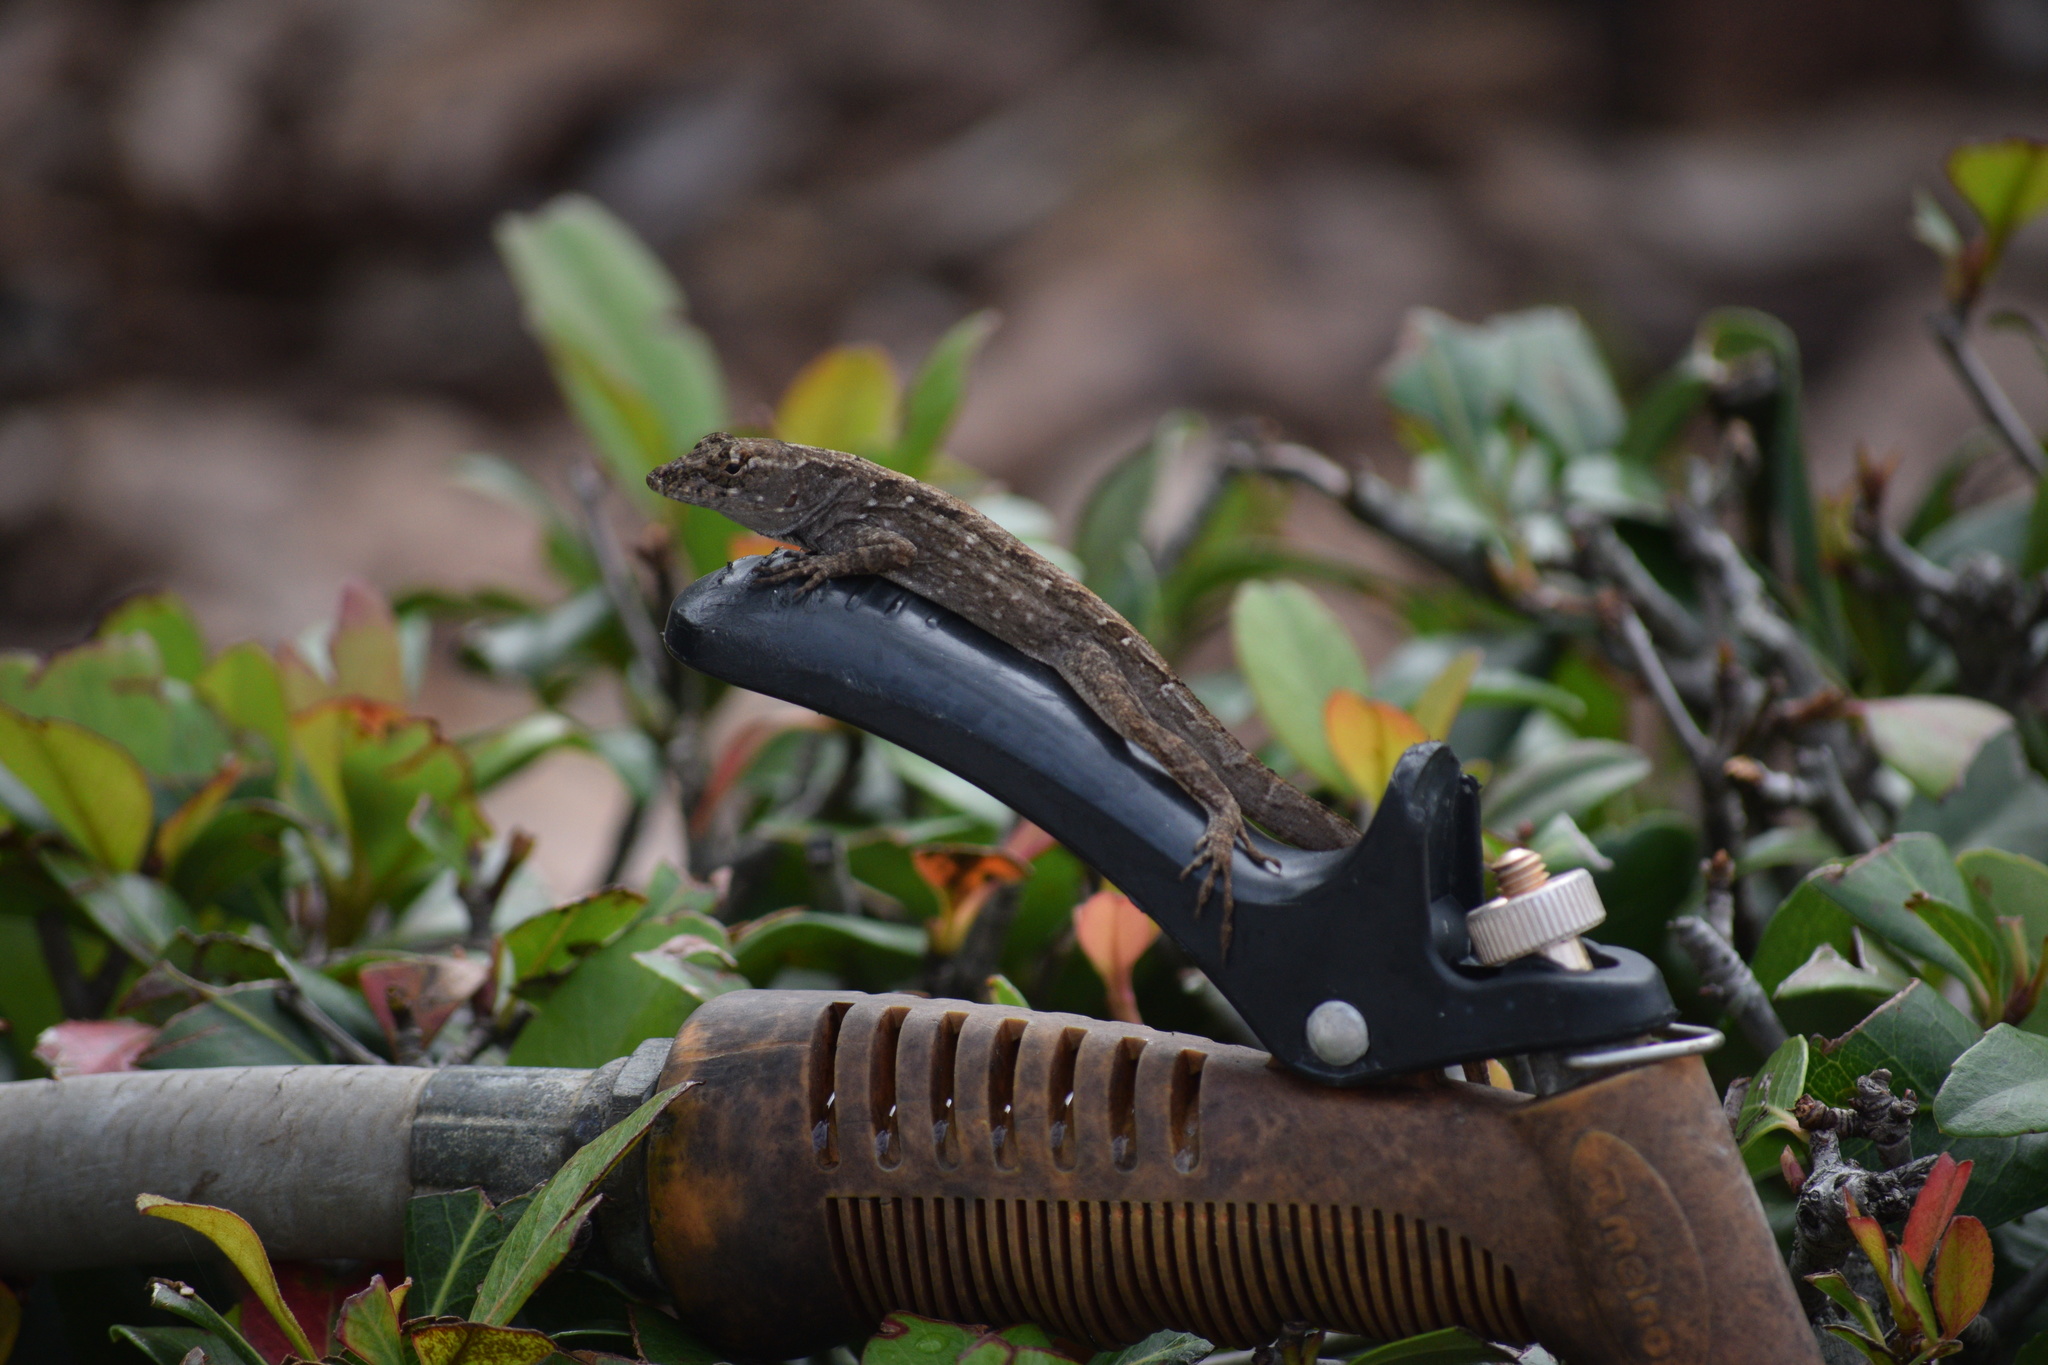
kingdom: Animalia
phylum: Chordata
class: Squamata
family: Dactyloidae
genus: Anolis
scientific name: Anolis sagrei
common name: Brown anole
